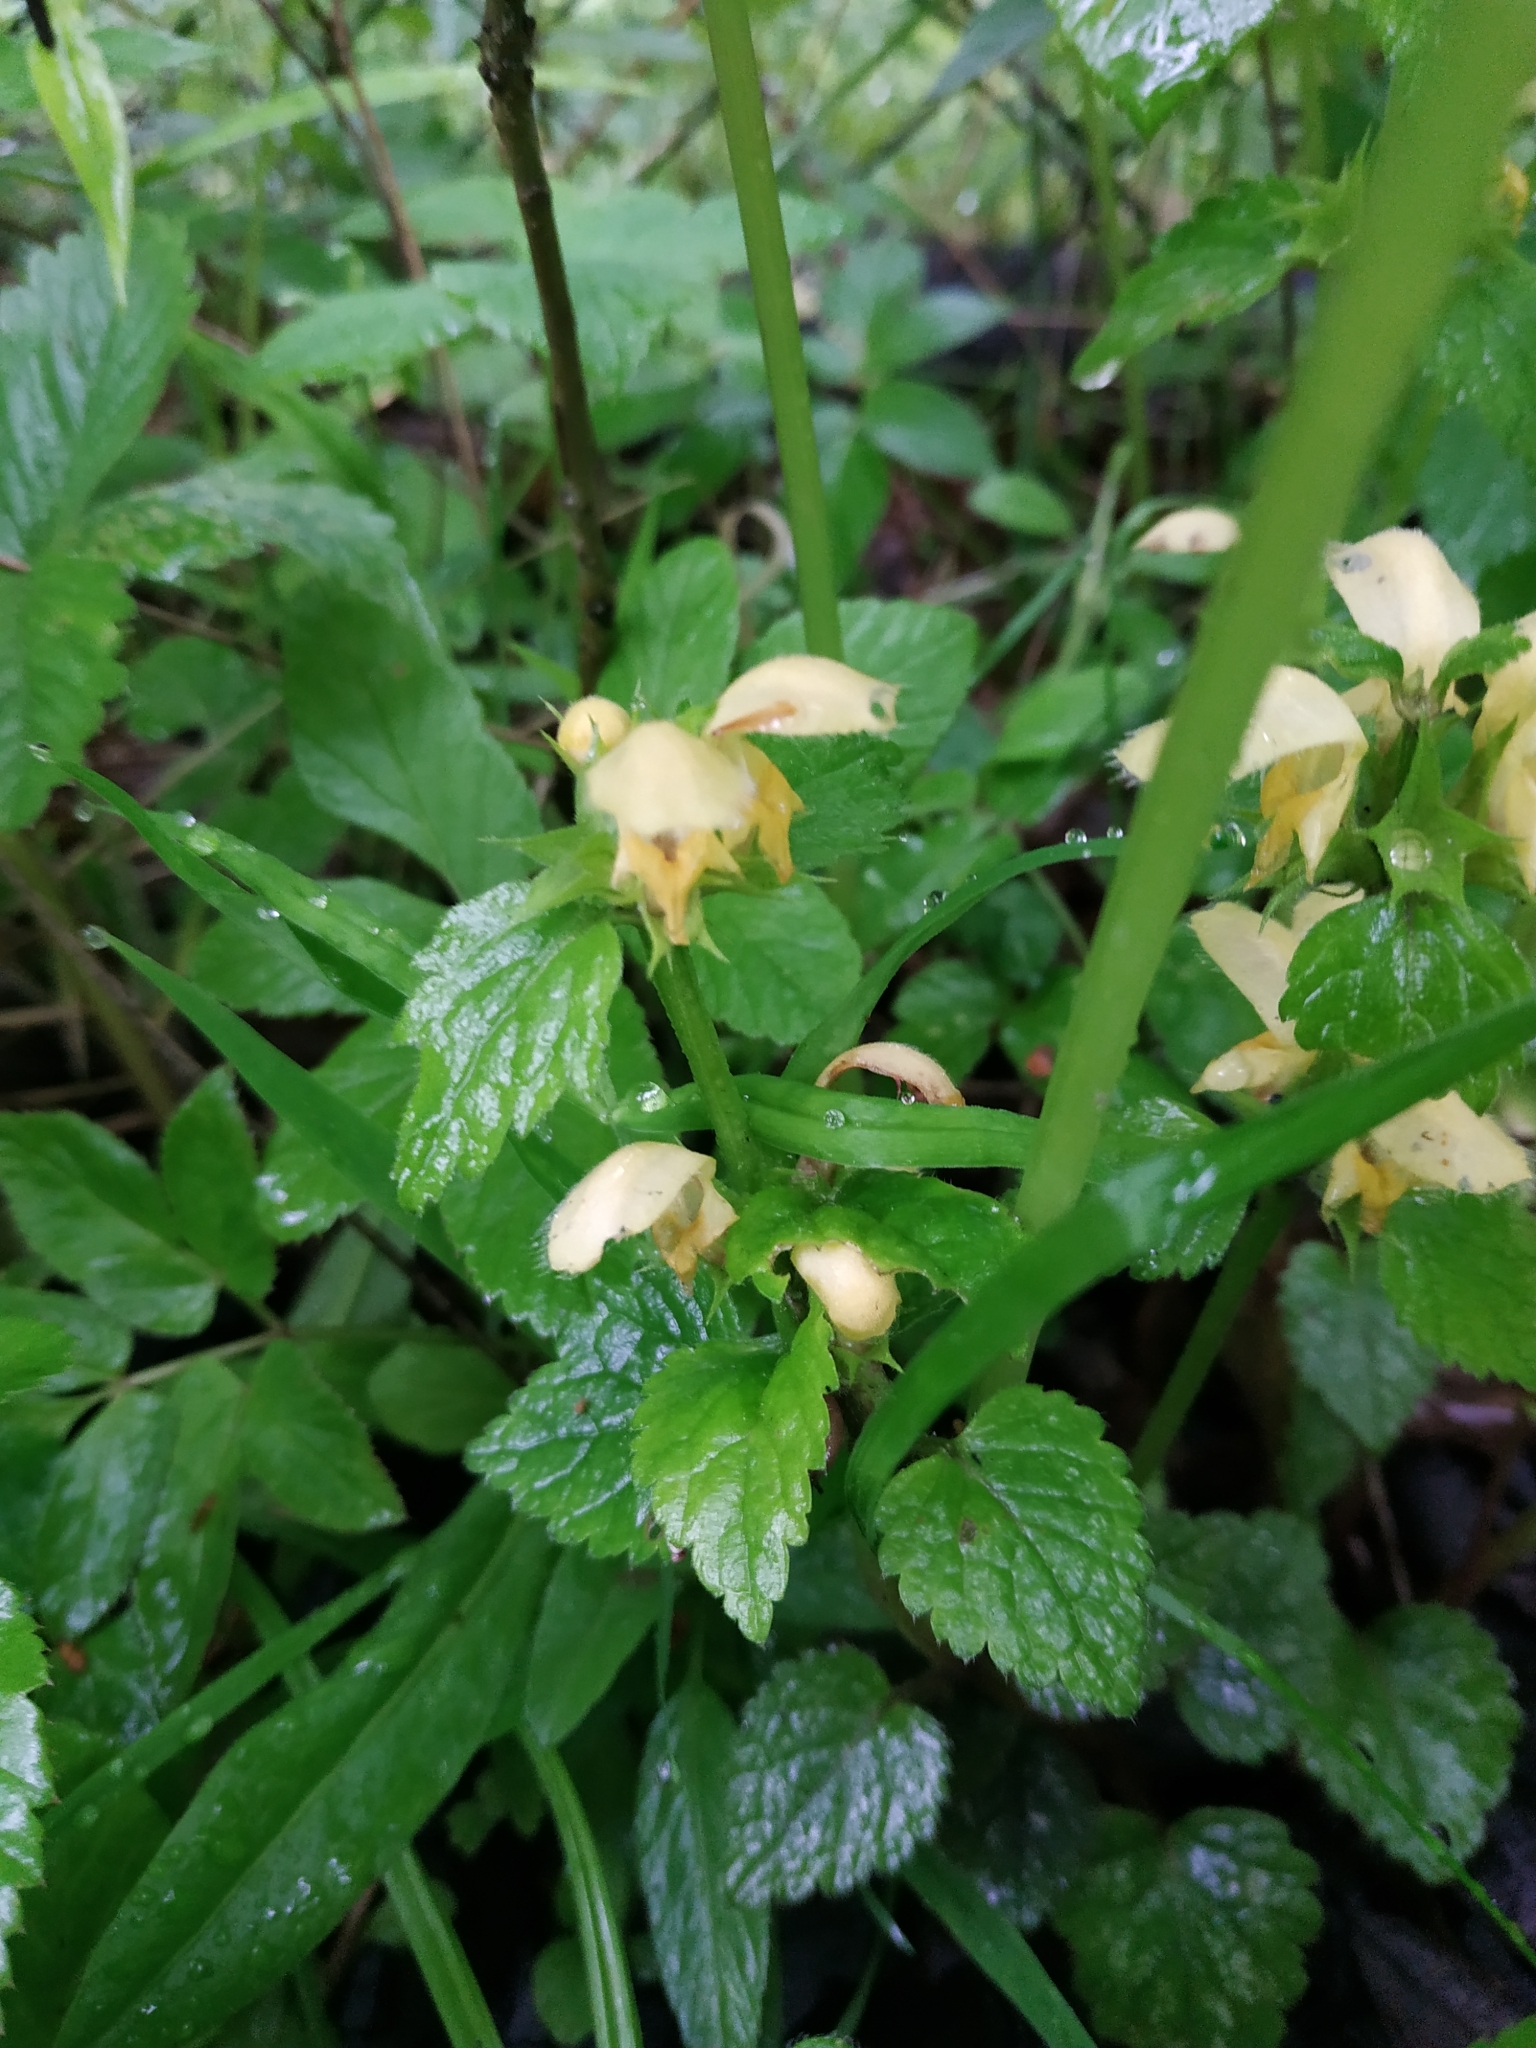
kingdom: Plantae
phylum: Tracheophyta
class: Magnoliopsida
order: Lamiales
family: Lamiaceae
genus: Lamium
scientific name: Lamium galeobdolon
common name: Yellow archangel
